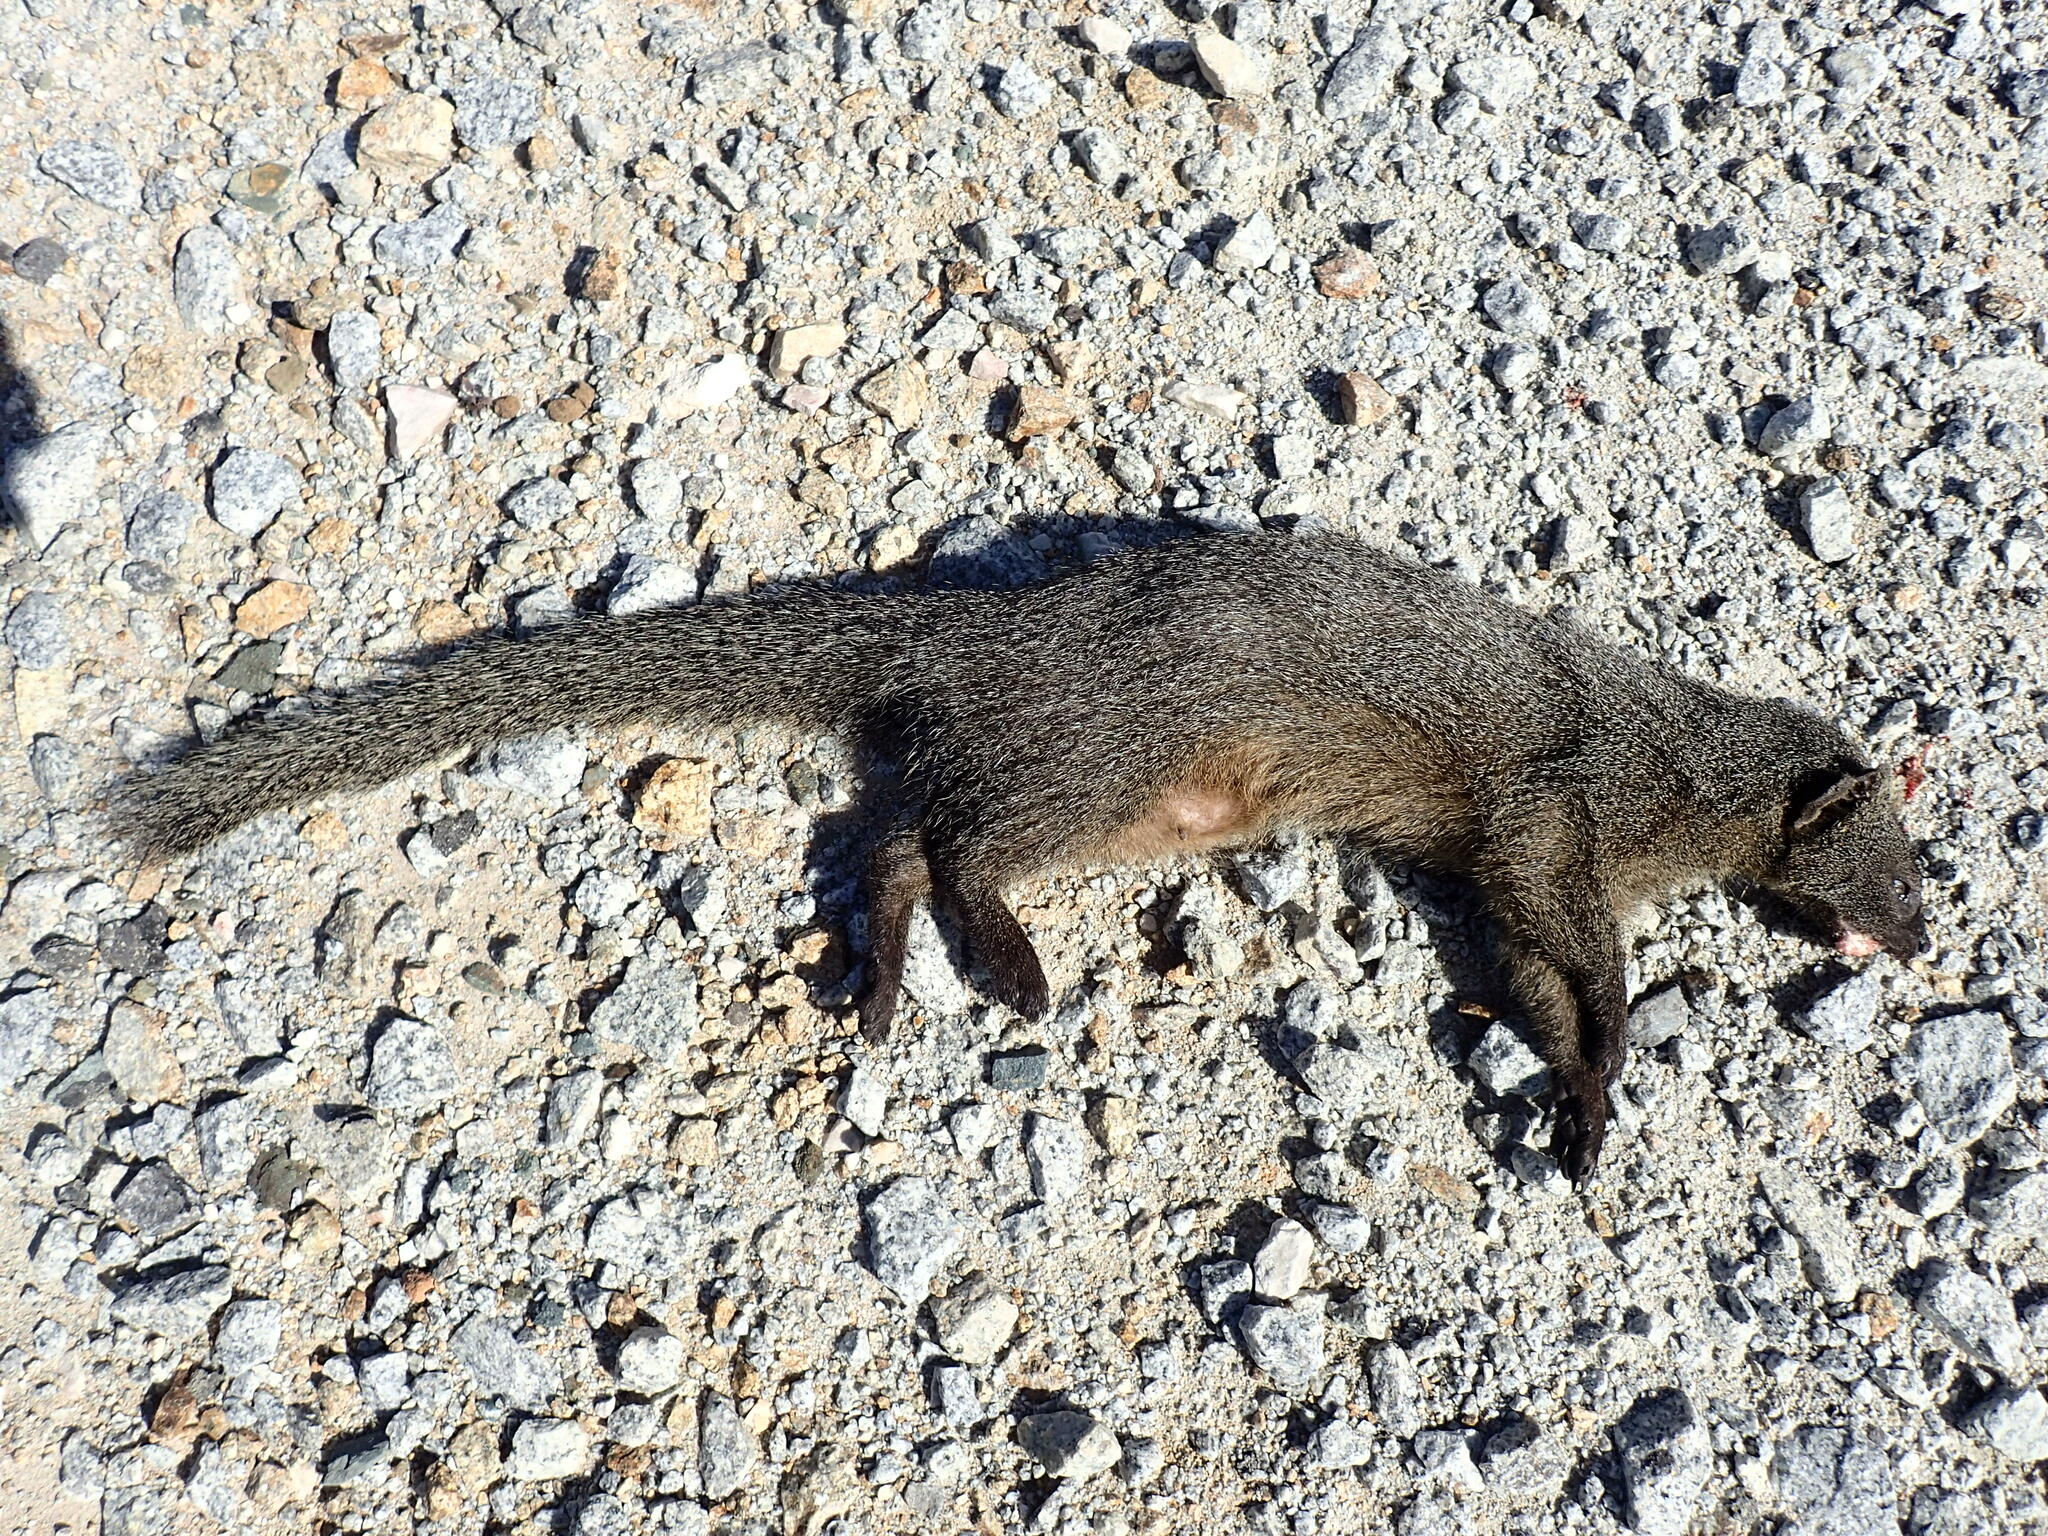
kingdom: Animalia
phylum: Chordata
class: Mammalia
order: Carnivora
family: Herpestidae
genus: Galerella
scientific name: Galerella pulverulenta
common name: Cape gray mongoose
